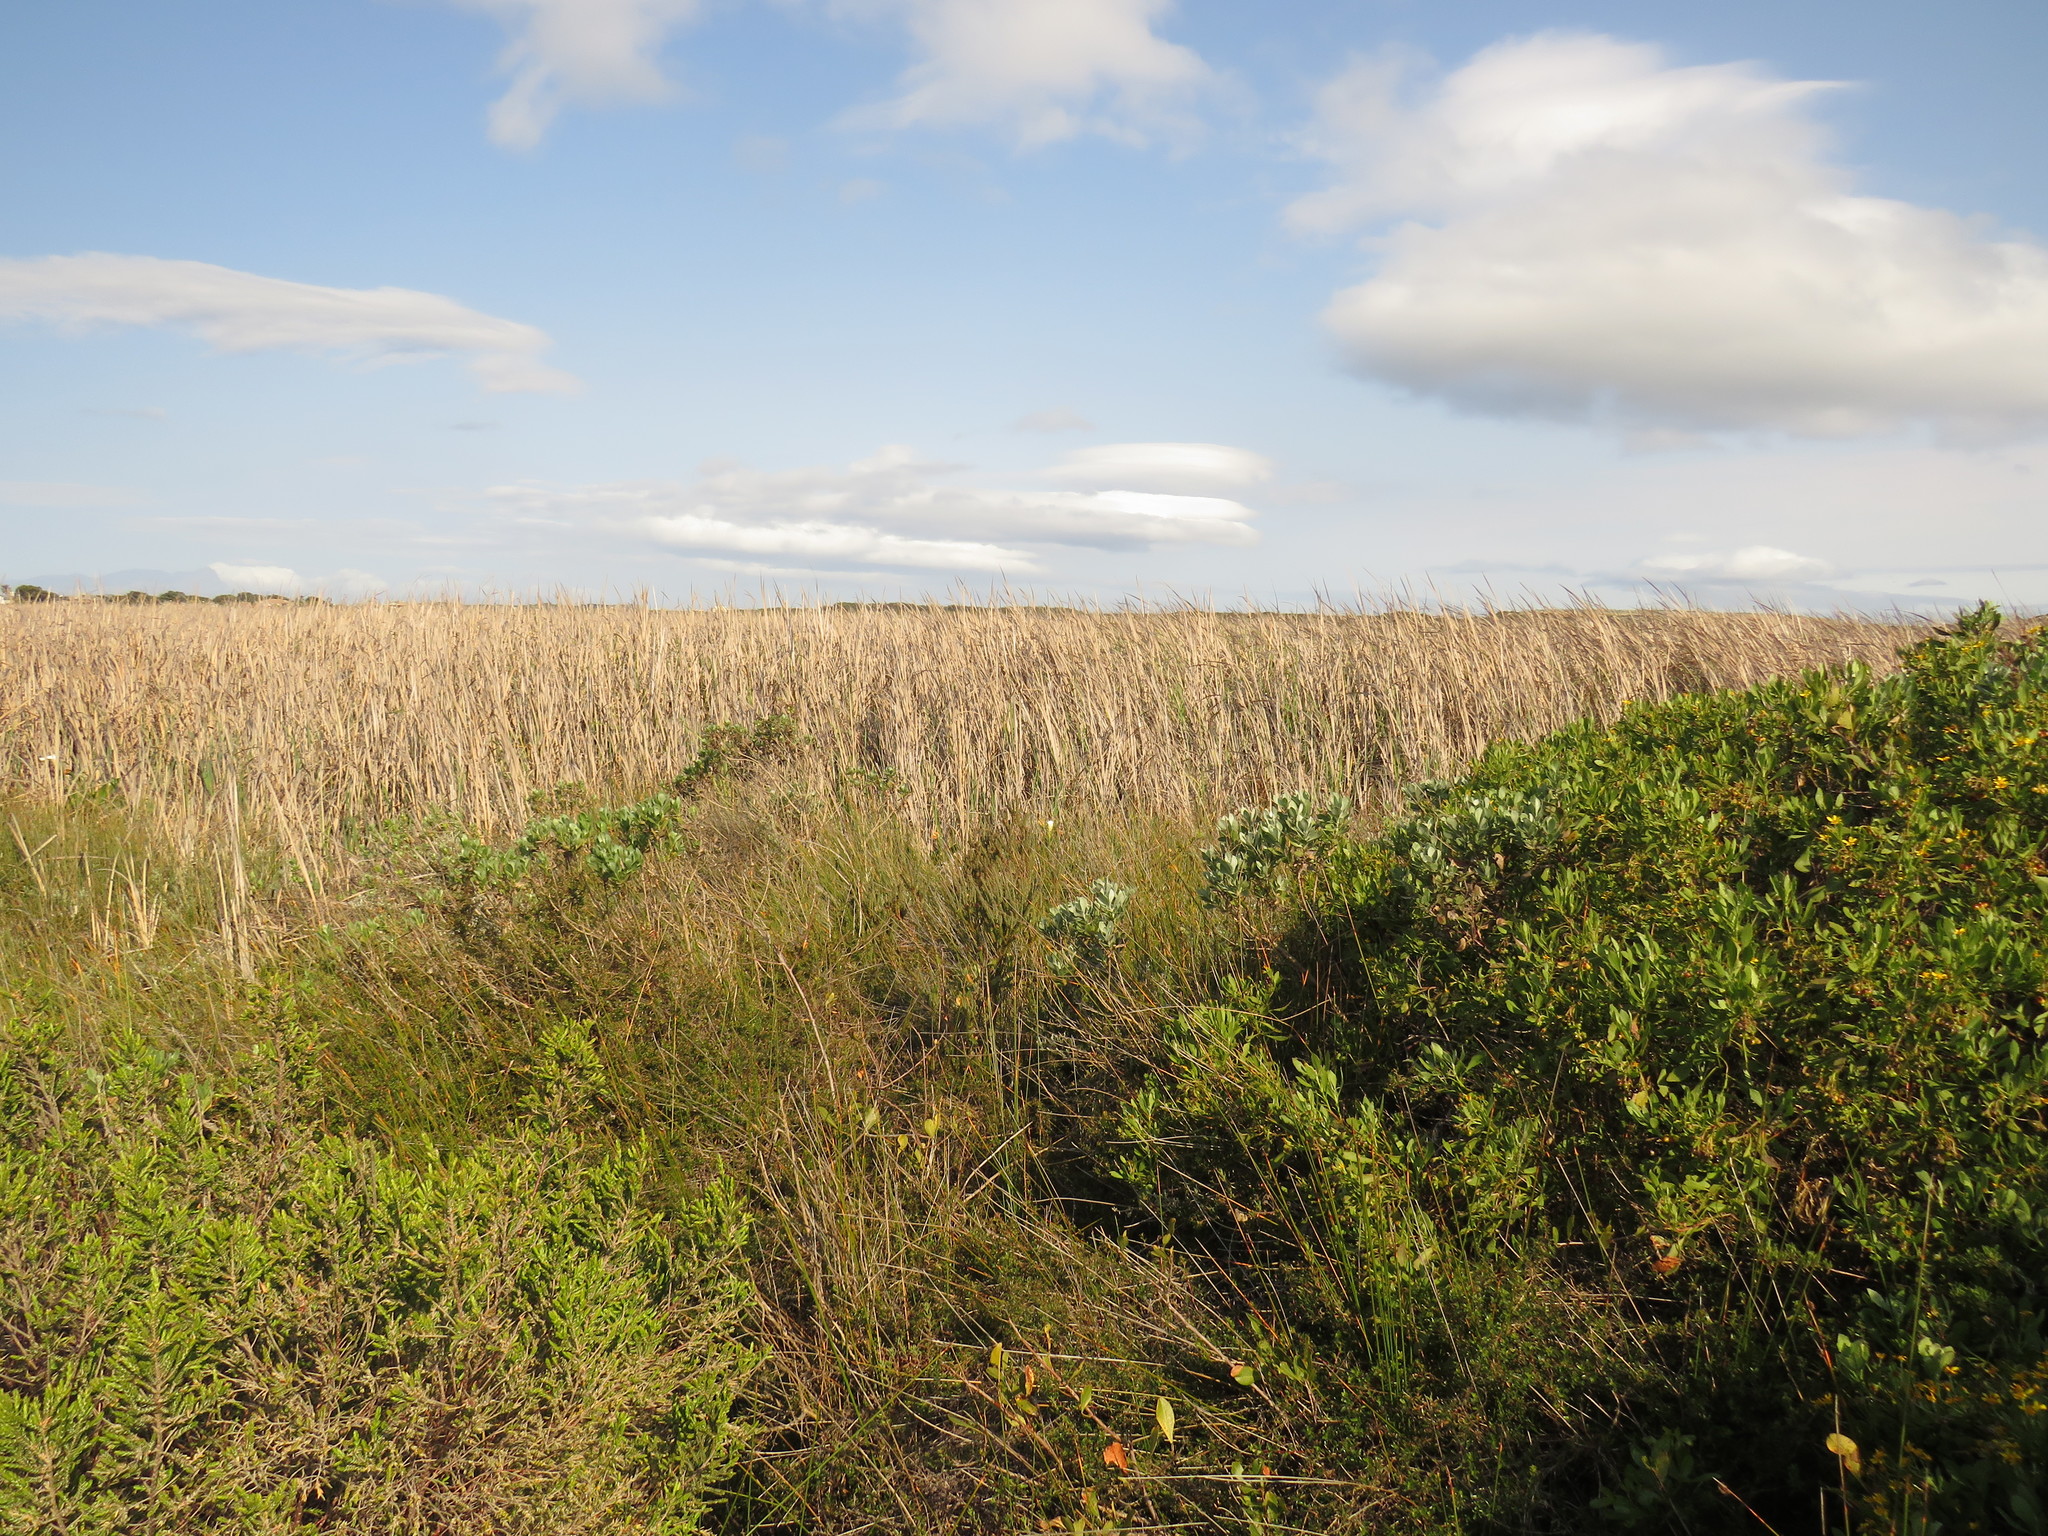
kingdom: Plantae
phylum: Tracheophyta
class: Magnoliopsida
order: Proteales
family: Proteaceae
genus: Leucadendron
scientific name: Leucadendron levisanus
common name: Cape flats conebush
